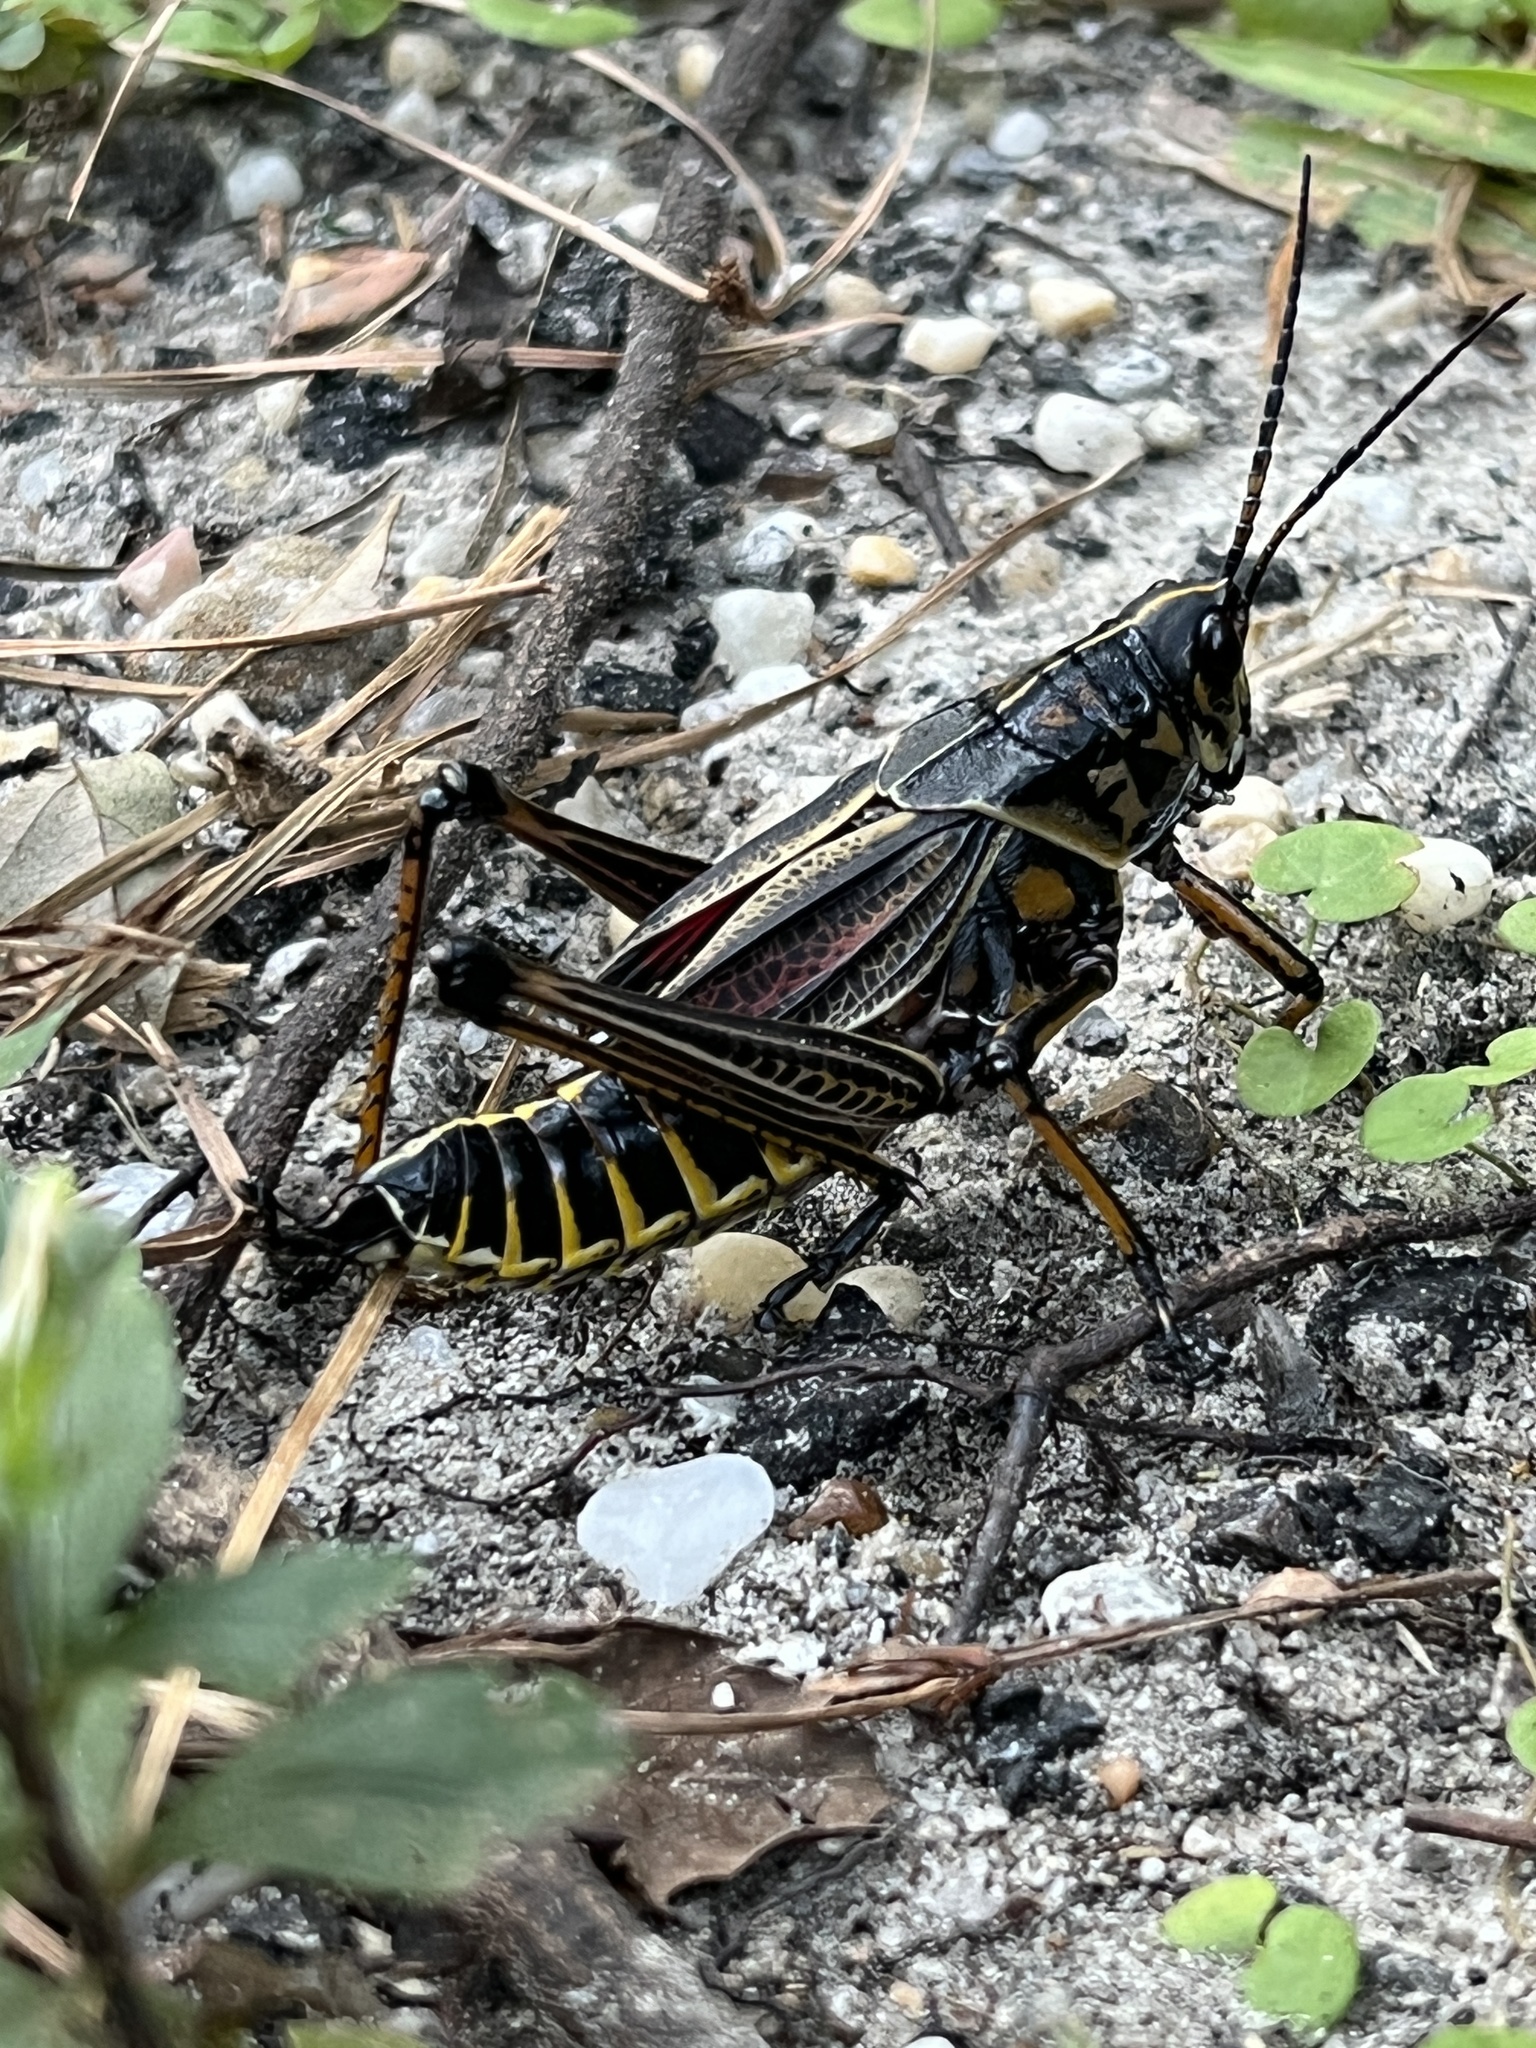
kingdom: Animalia
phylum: Arthropoda
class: Insecta
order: Orthoptera
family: Romaleidae
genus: Romalea
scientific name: Romalea microptera
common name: Eastern lubber grasshopper
